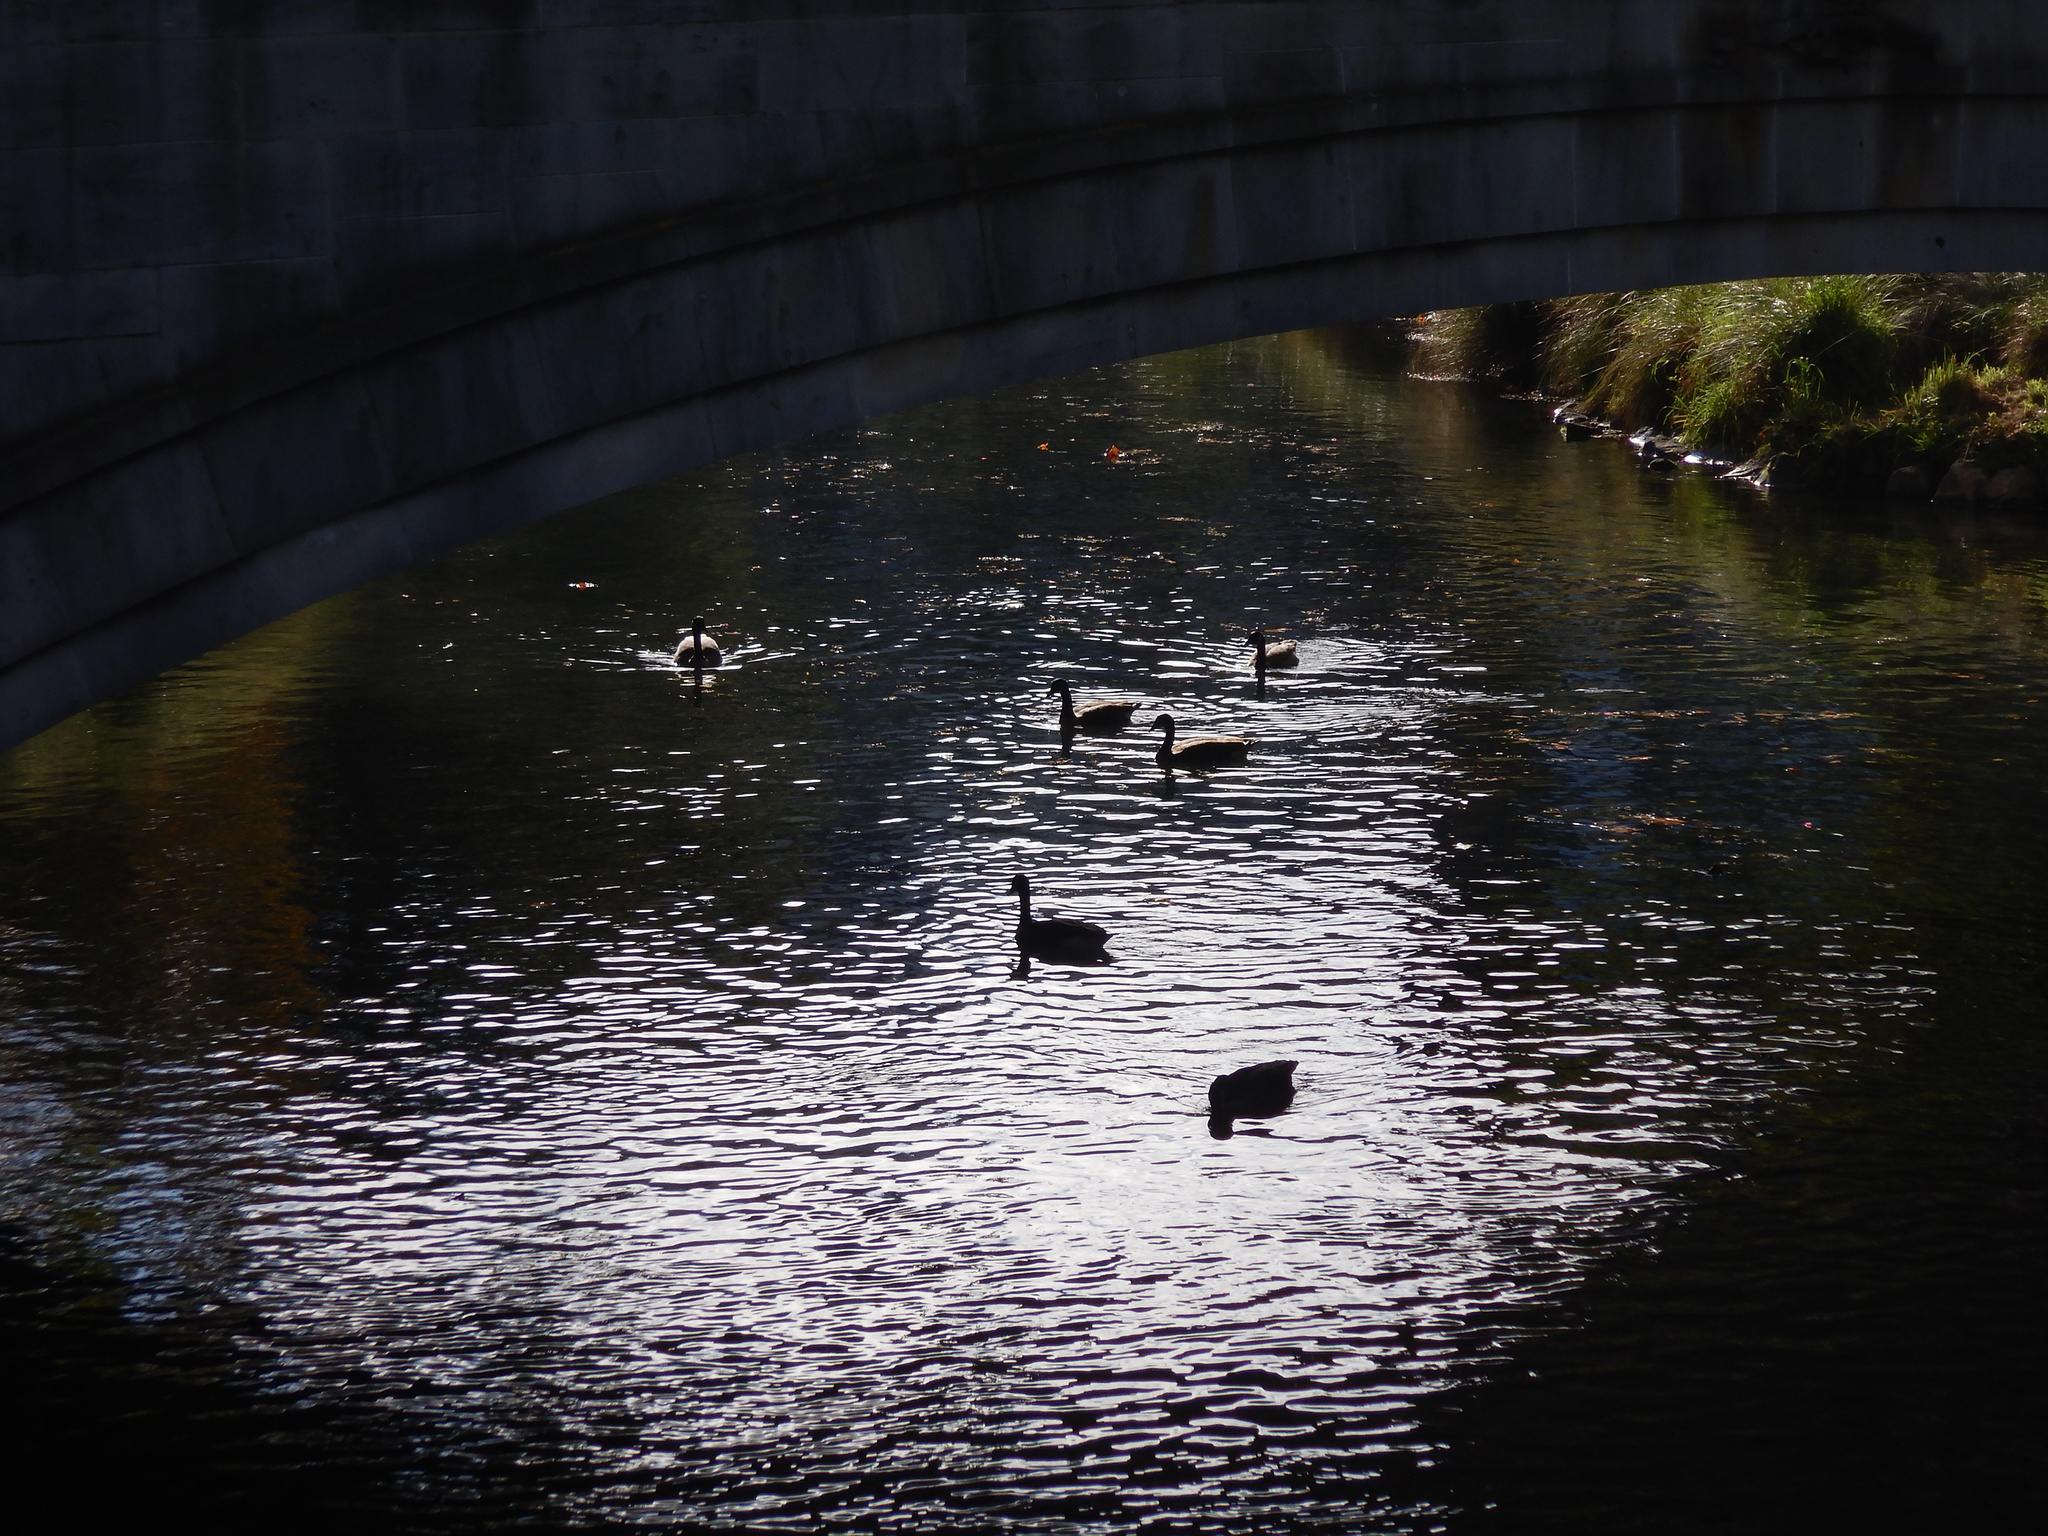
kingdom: Animalia
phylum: Chordata
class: Aves
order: Anseriformes
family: Anatidae
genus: Branta
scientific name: Branta canadensis
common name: Canada goose
